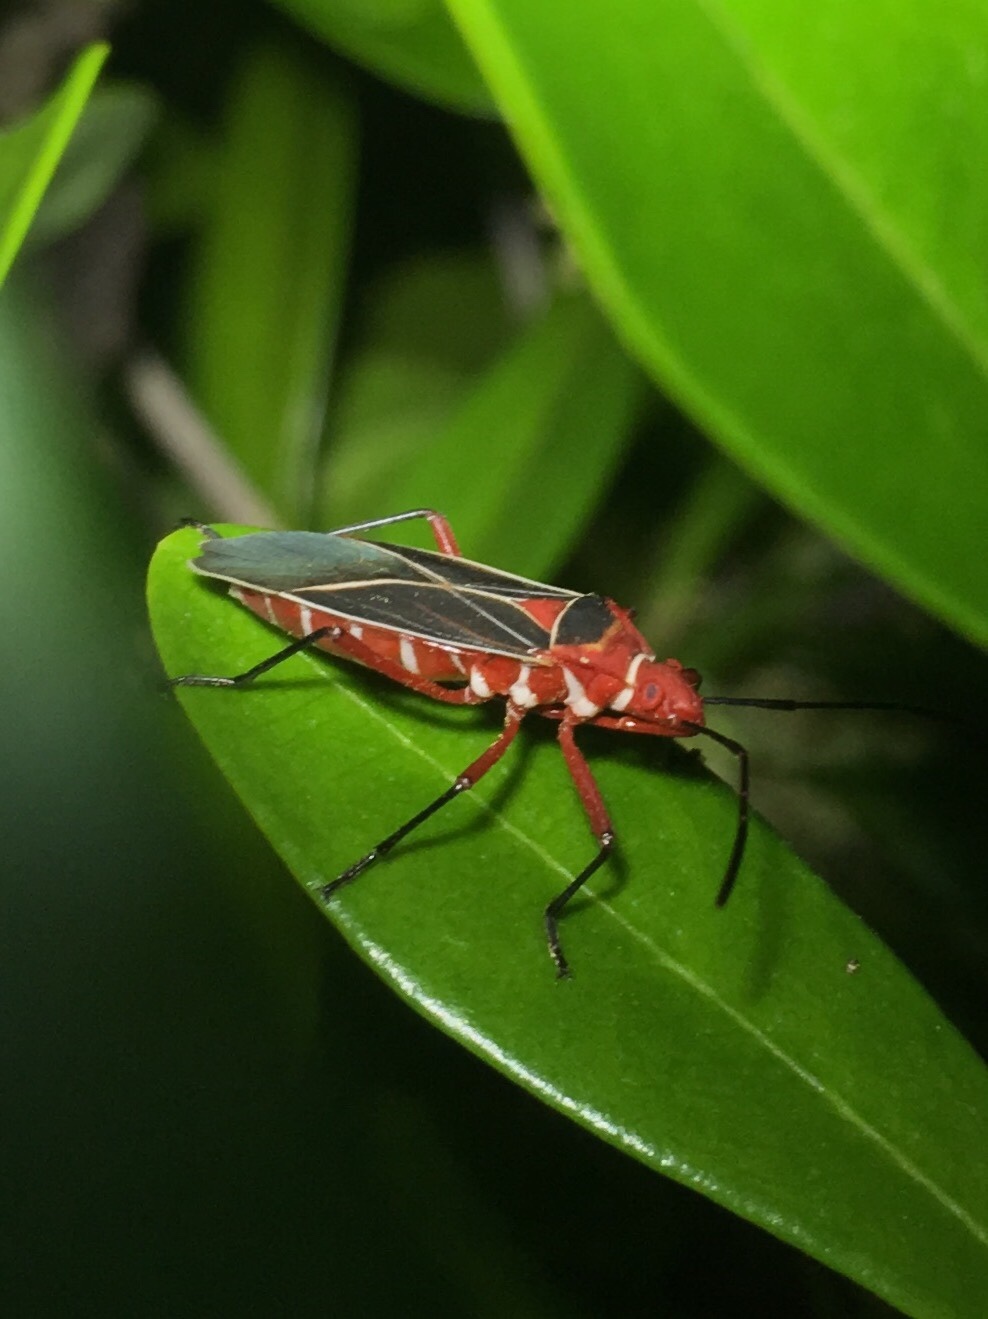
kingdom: Animalia
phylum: Arthropoda
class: Insecta
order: Hemiptera
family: Pyrrhocoridae
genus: Dysdercus
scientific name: Dysdercus suturellus
